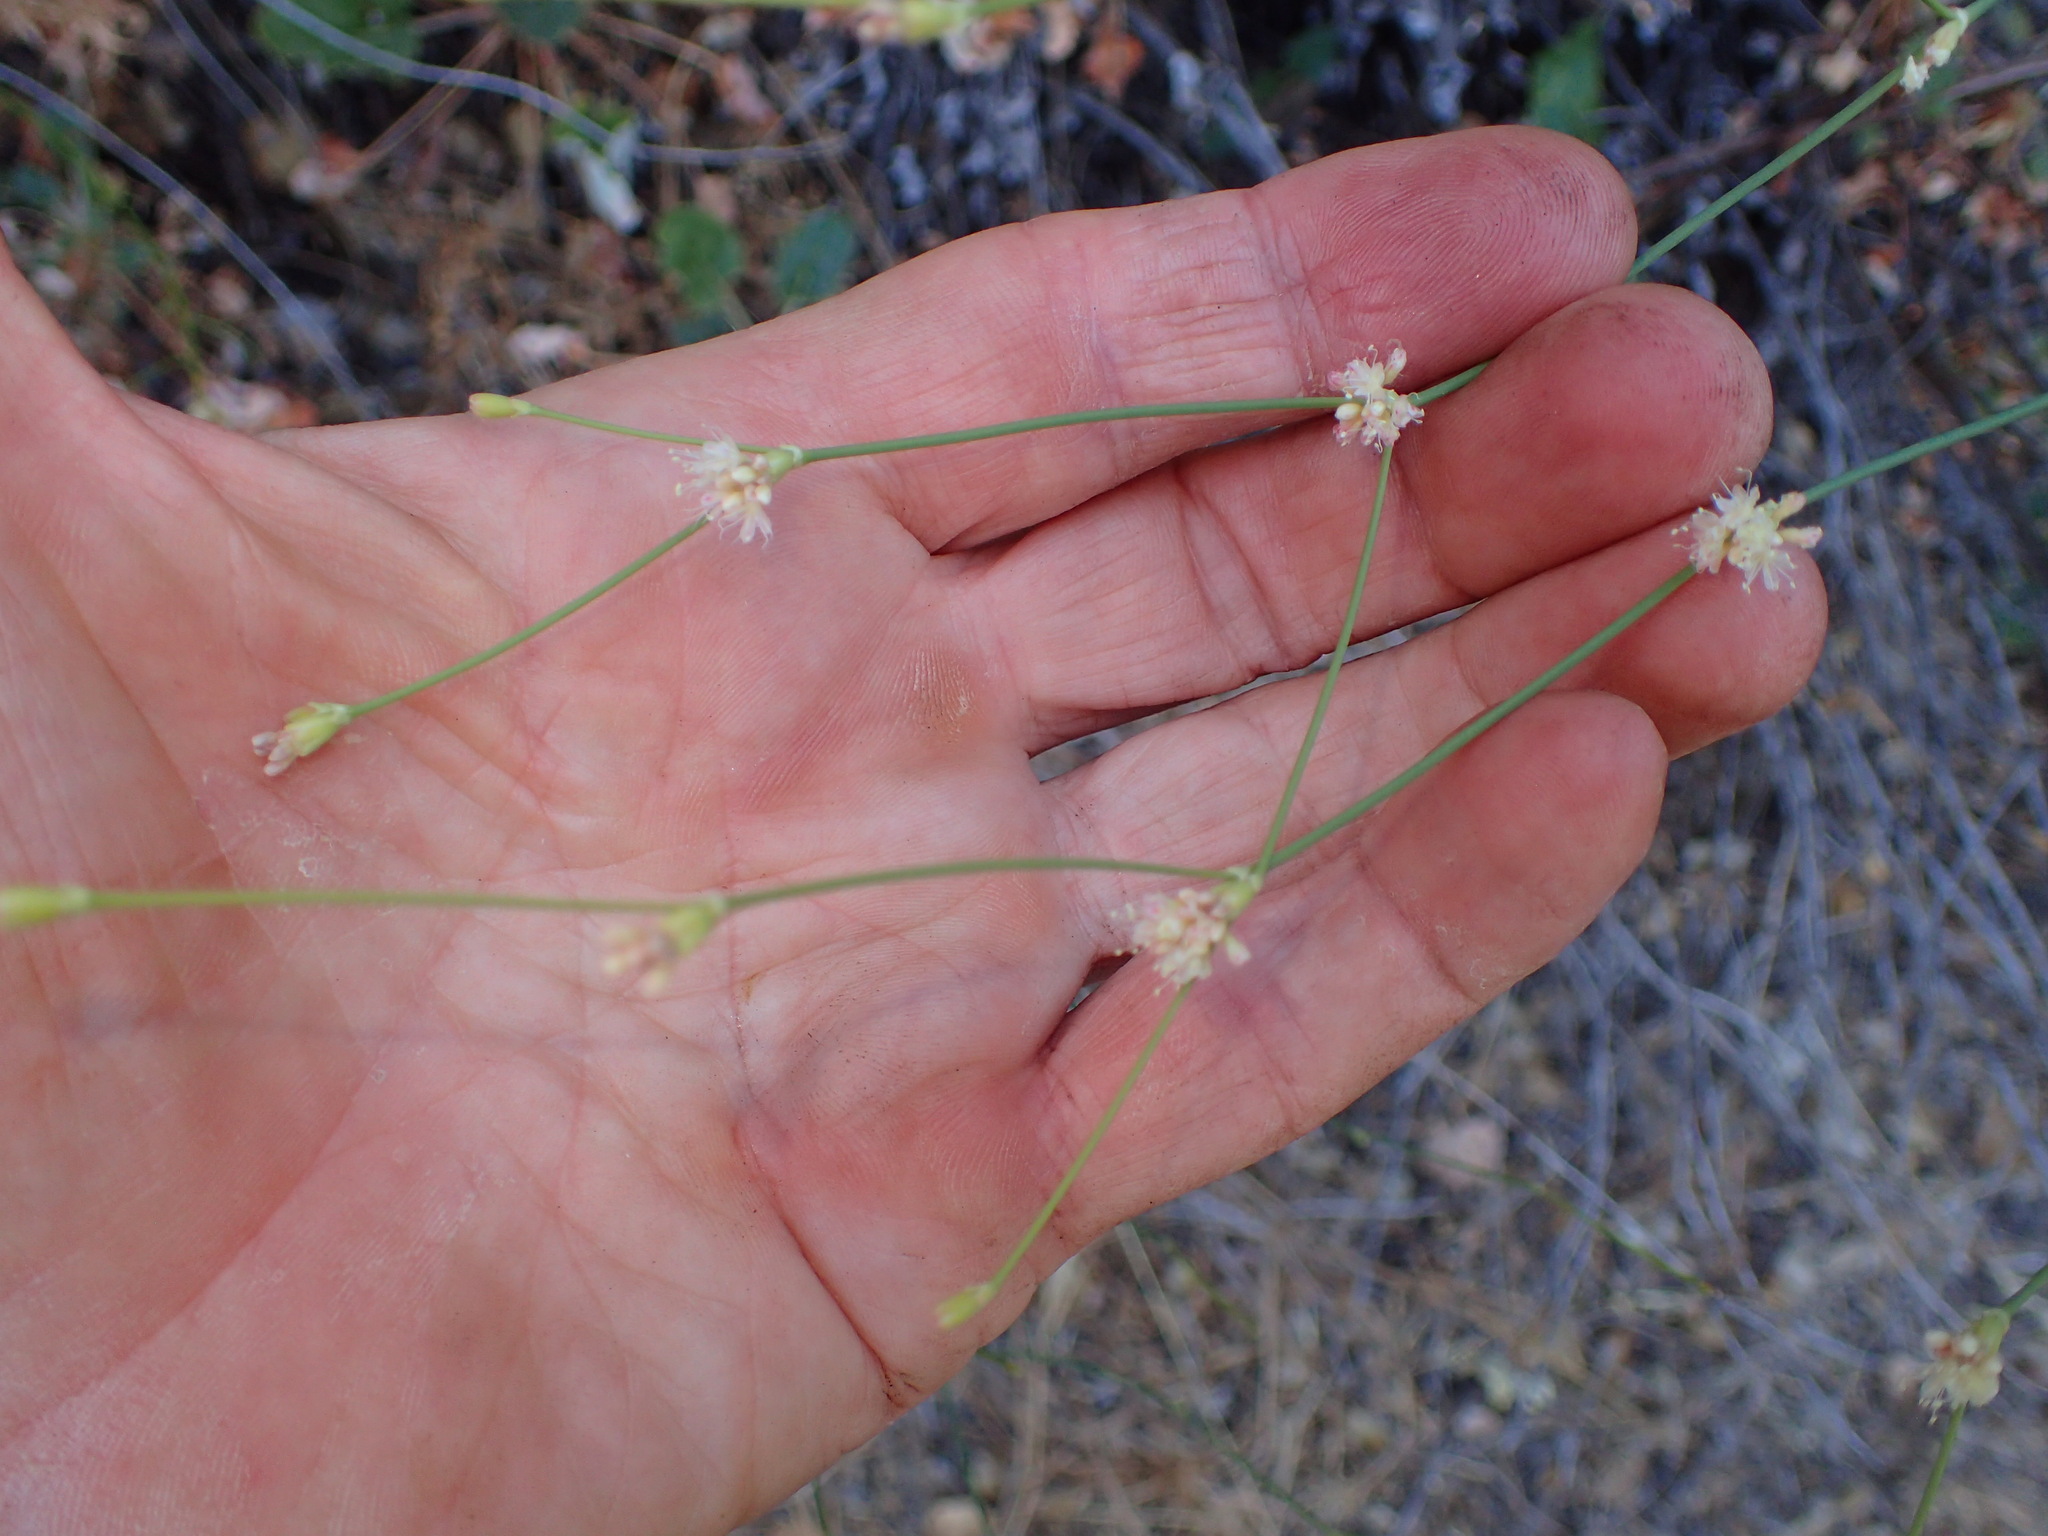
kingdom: Plantae
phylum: Tracheophyta
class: Magnoliopsida
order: Caryophyllales
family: Polygonaceae
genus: Eriogonum
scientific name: Eriogonum nudum
